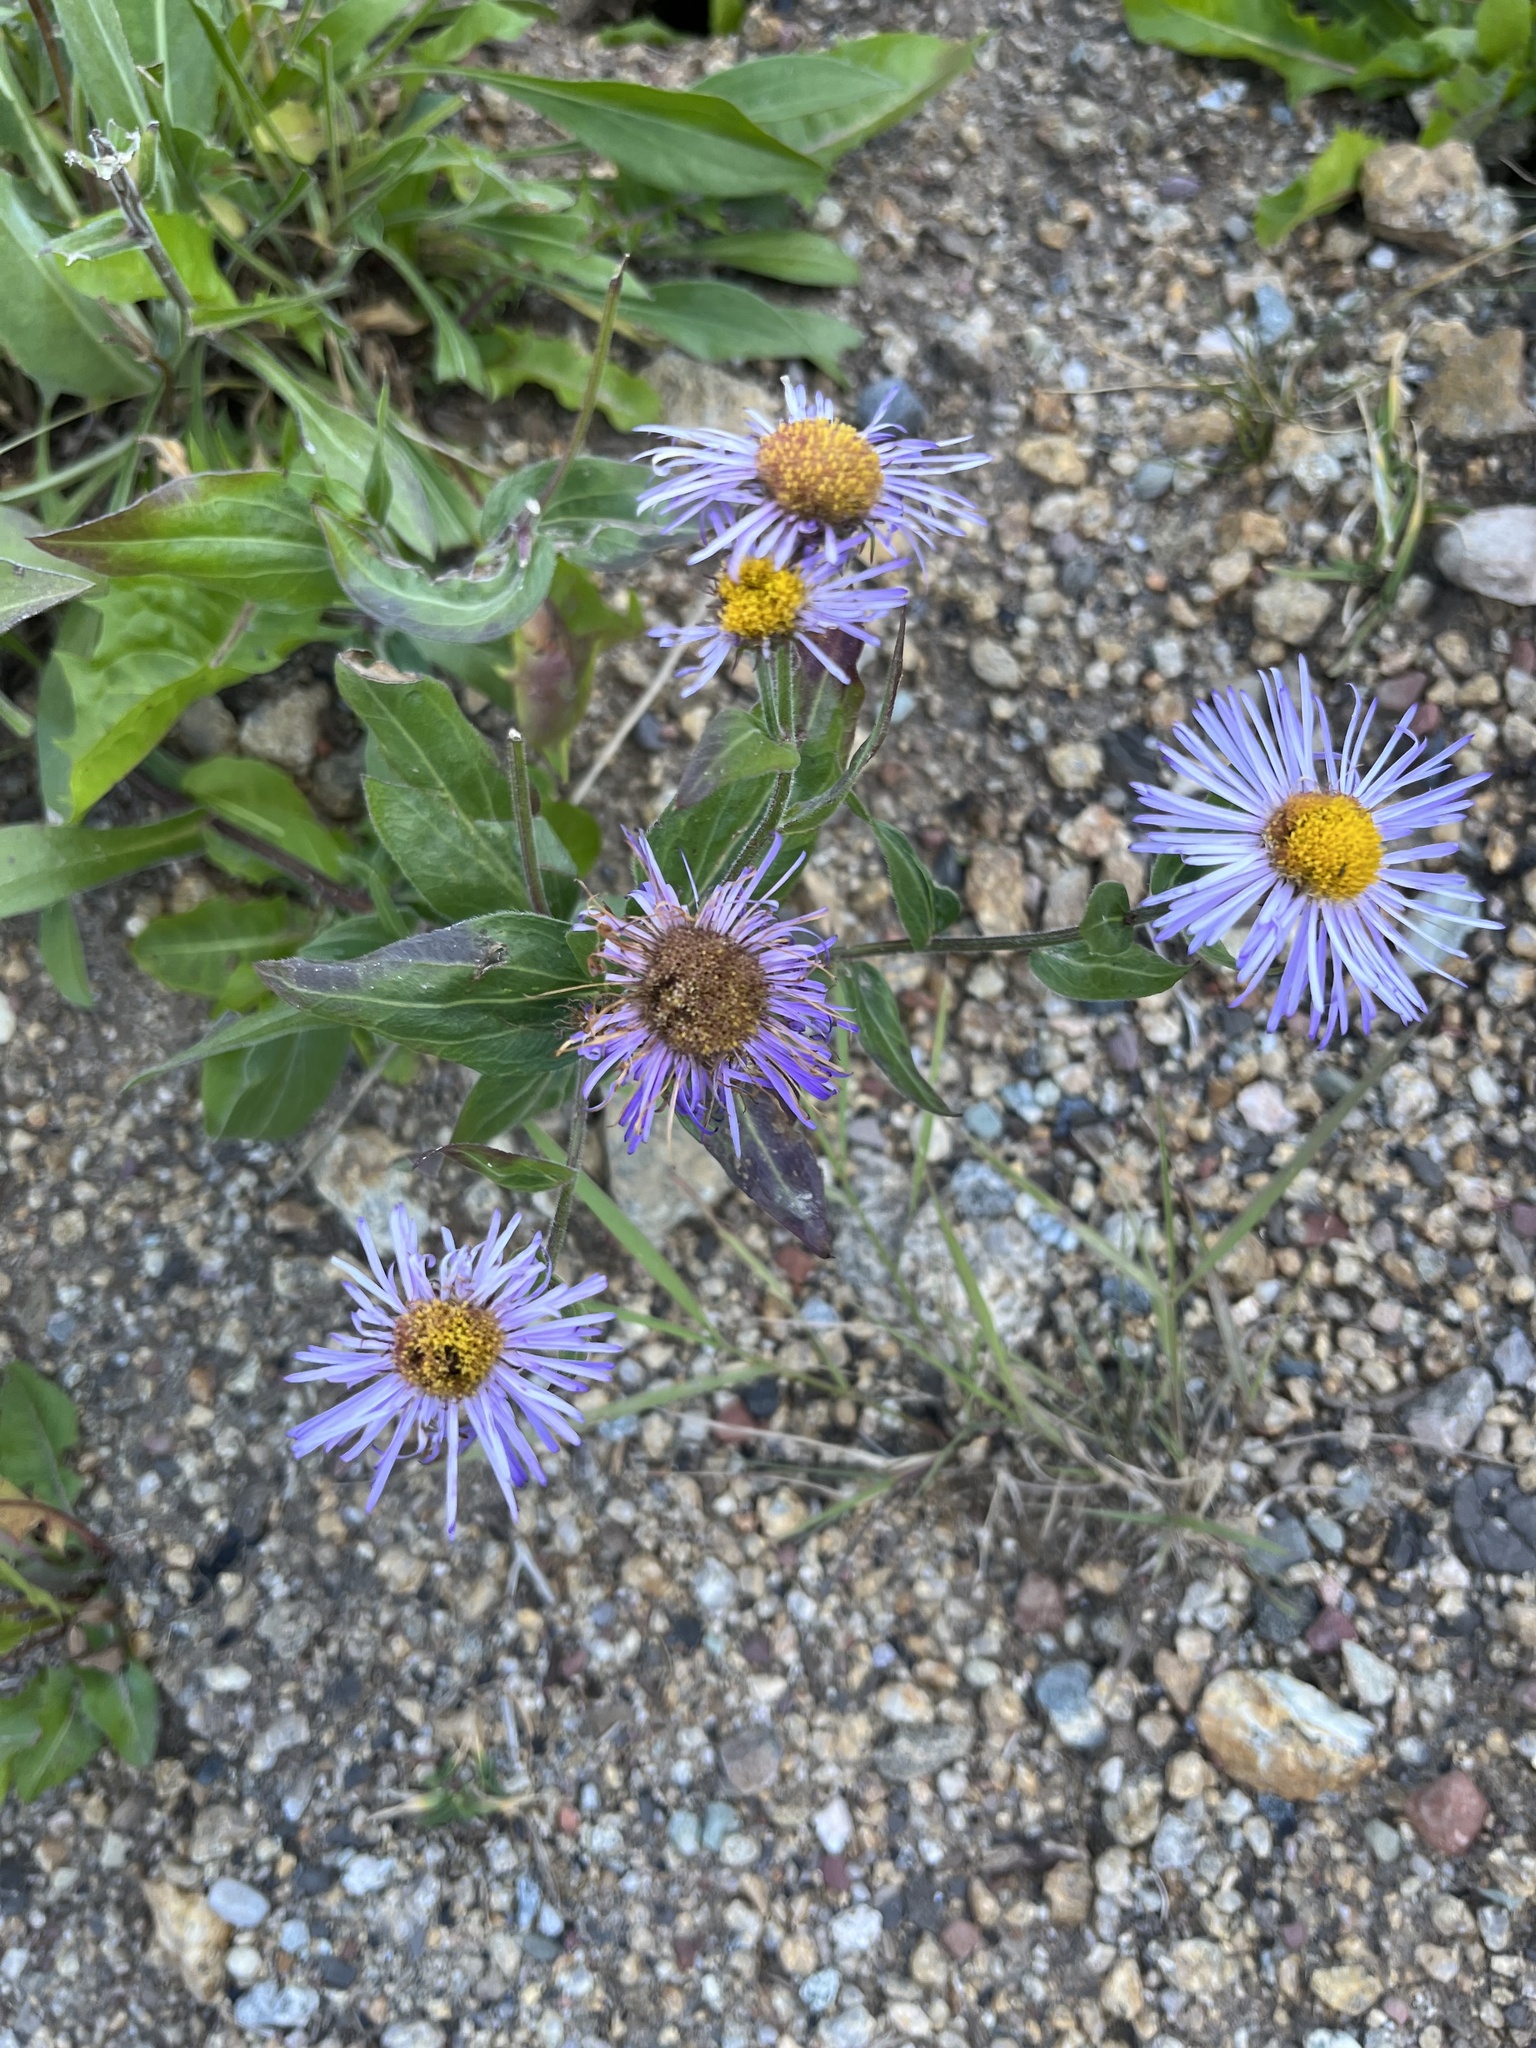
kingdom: Plantae
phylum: Tracheophyta
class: Magnoliopsida
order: Asterales
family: Asteraceae
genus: Erigeron
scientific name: Erigeron speciosus
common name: Aspen fleabane
